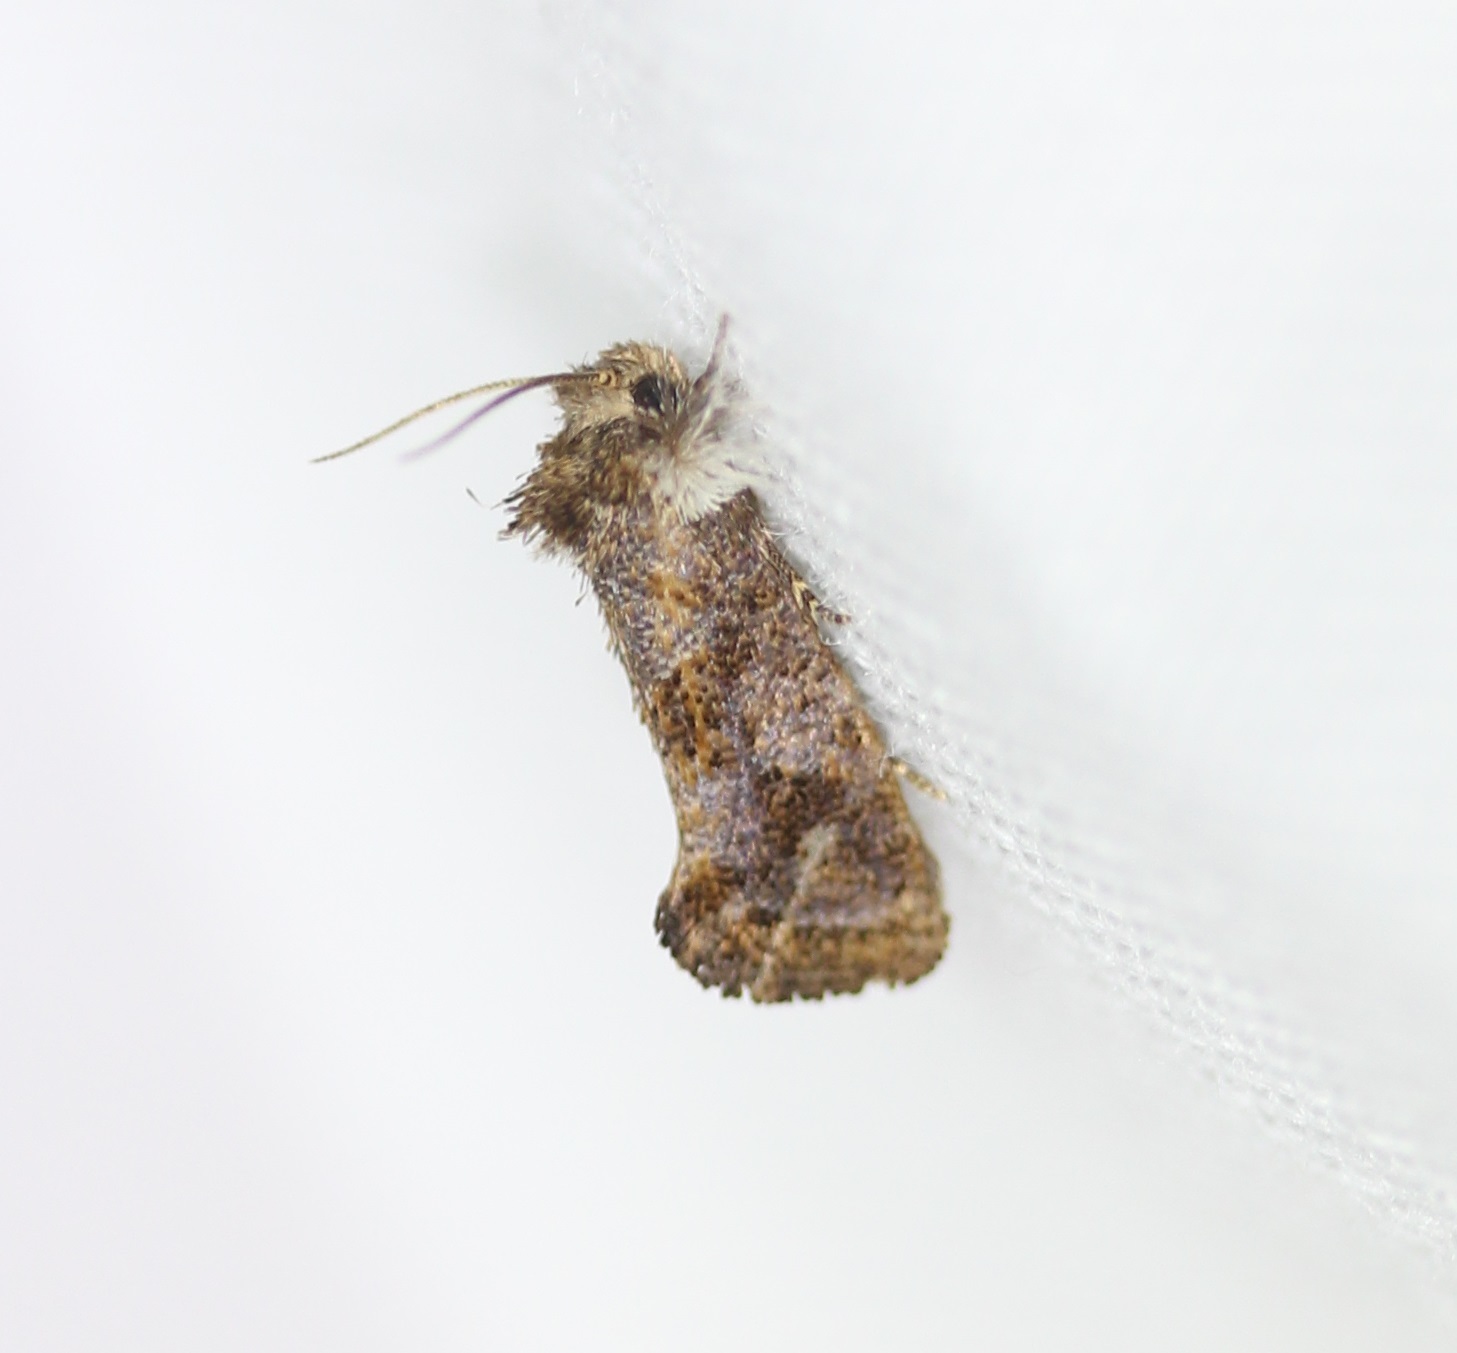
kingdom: Animalia
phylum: Arthropoda
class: Insecta
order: Lepidoptera
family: Tineidae
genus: Acrolophus
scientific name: Acrolophus panamae
